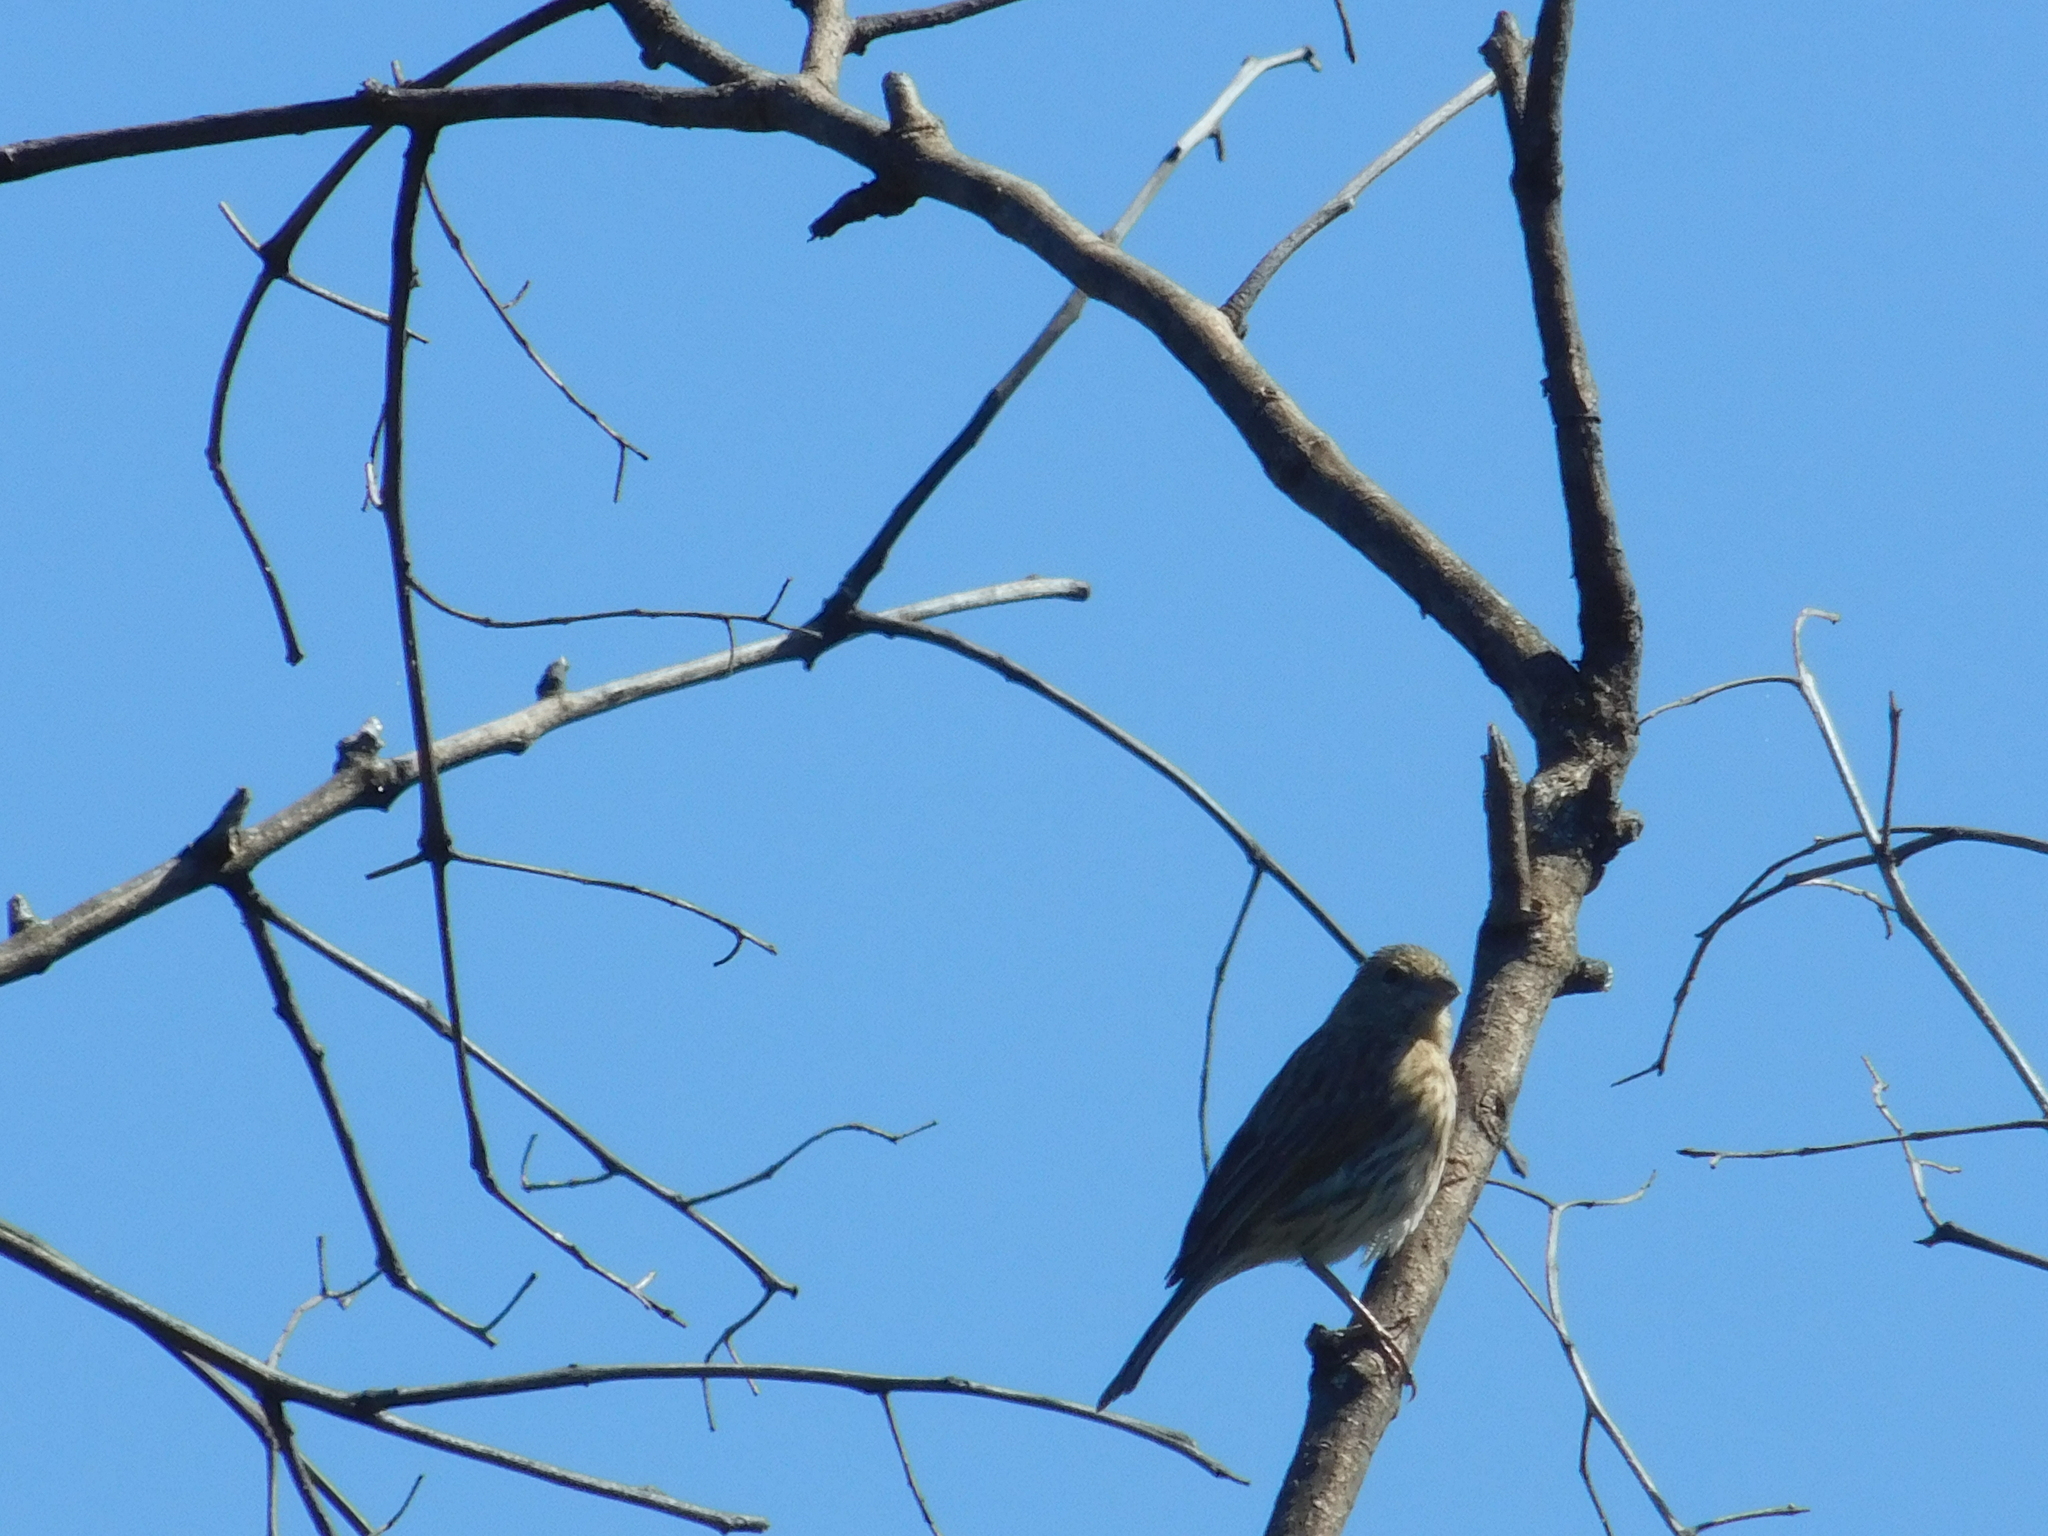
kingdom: Animalia
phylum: Chordata
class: Aves
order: Passeriformes
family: Thraupidae
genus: Sicalis
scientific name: Sicalis flaveola
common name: Saffron finch
